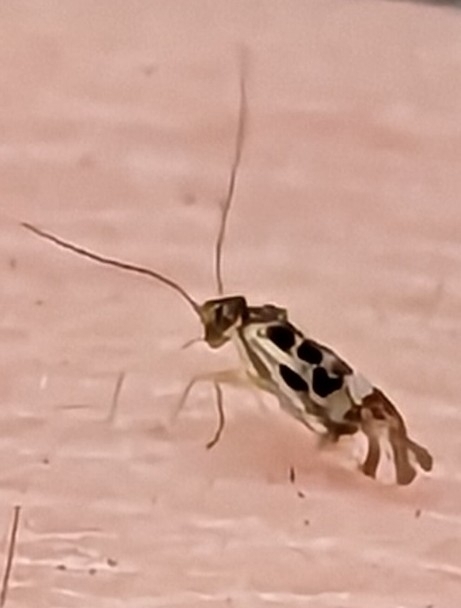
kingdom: Animalia
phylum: Arthropoda
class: Insecta
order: Psocodea
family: Stenopsocidae
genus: Graphopsocus
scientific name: Graphopsocus cruciatus
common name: Lizard bark louse
